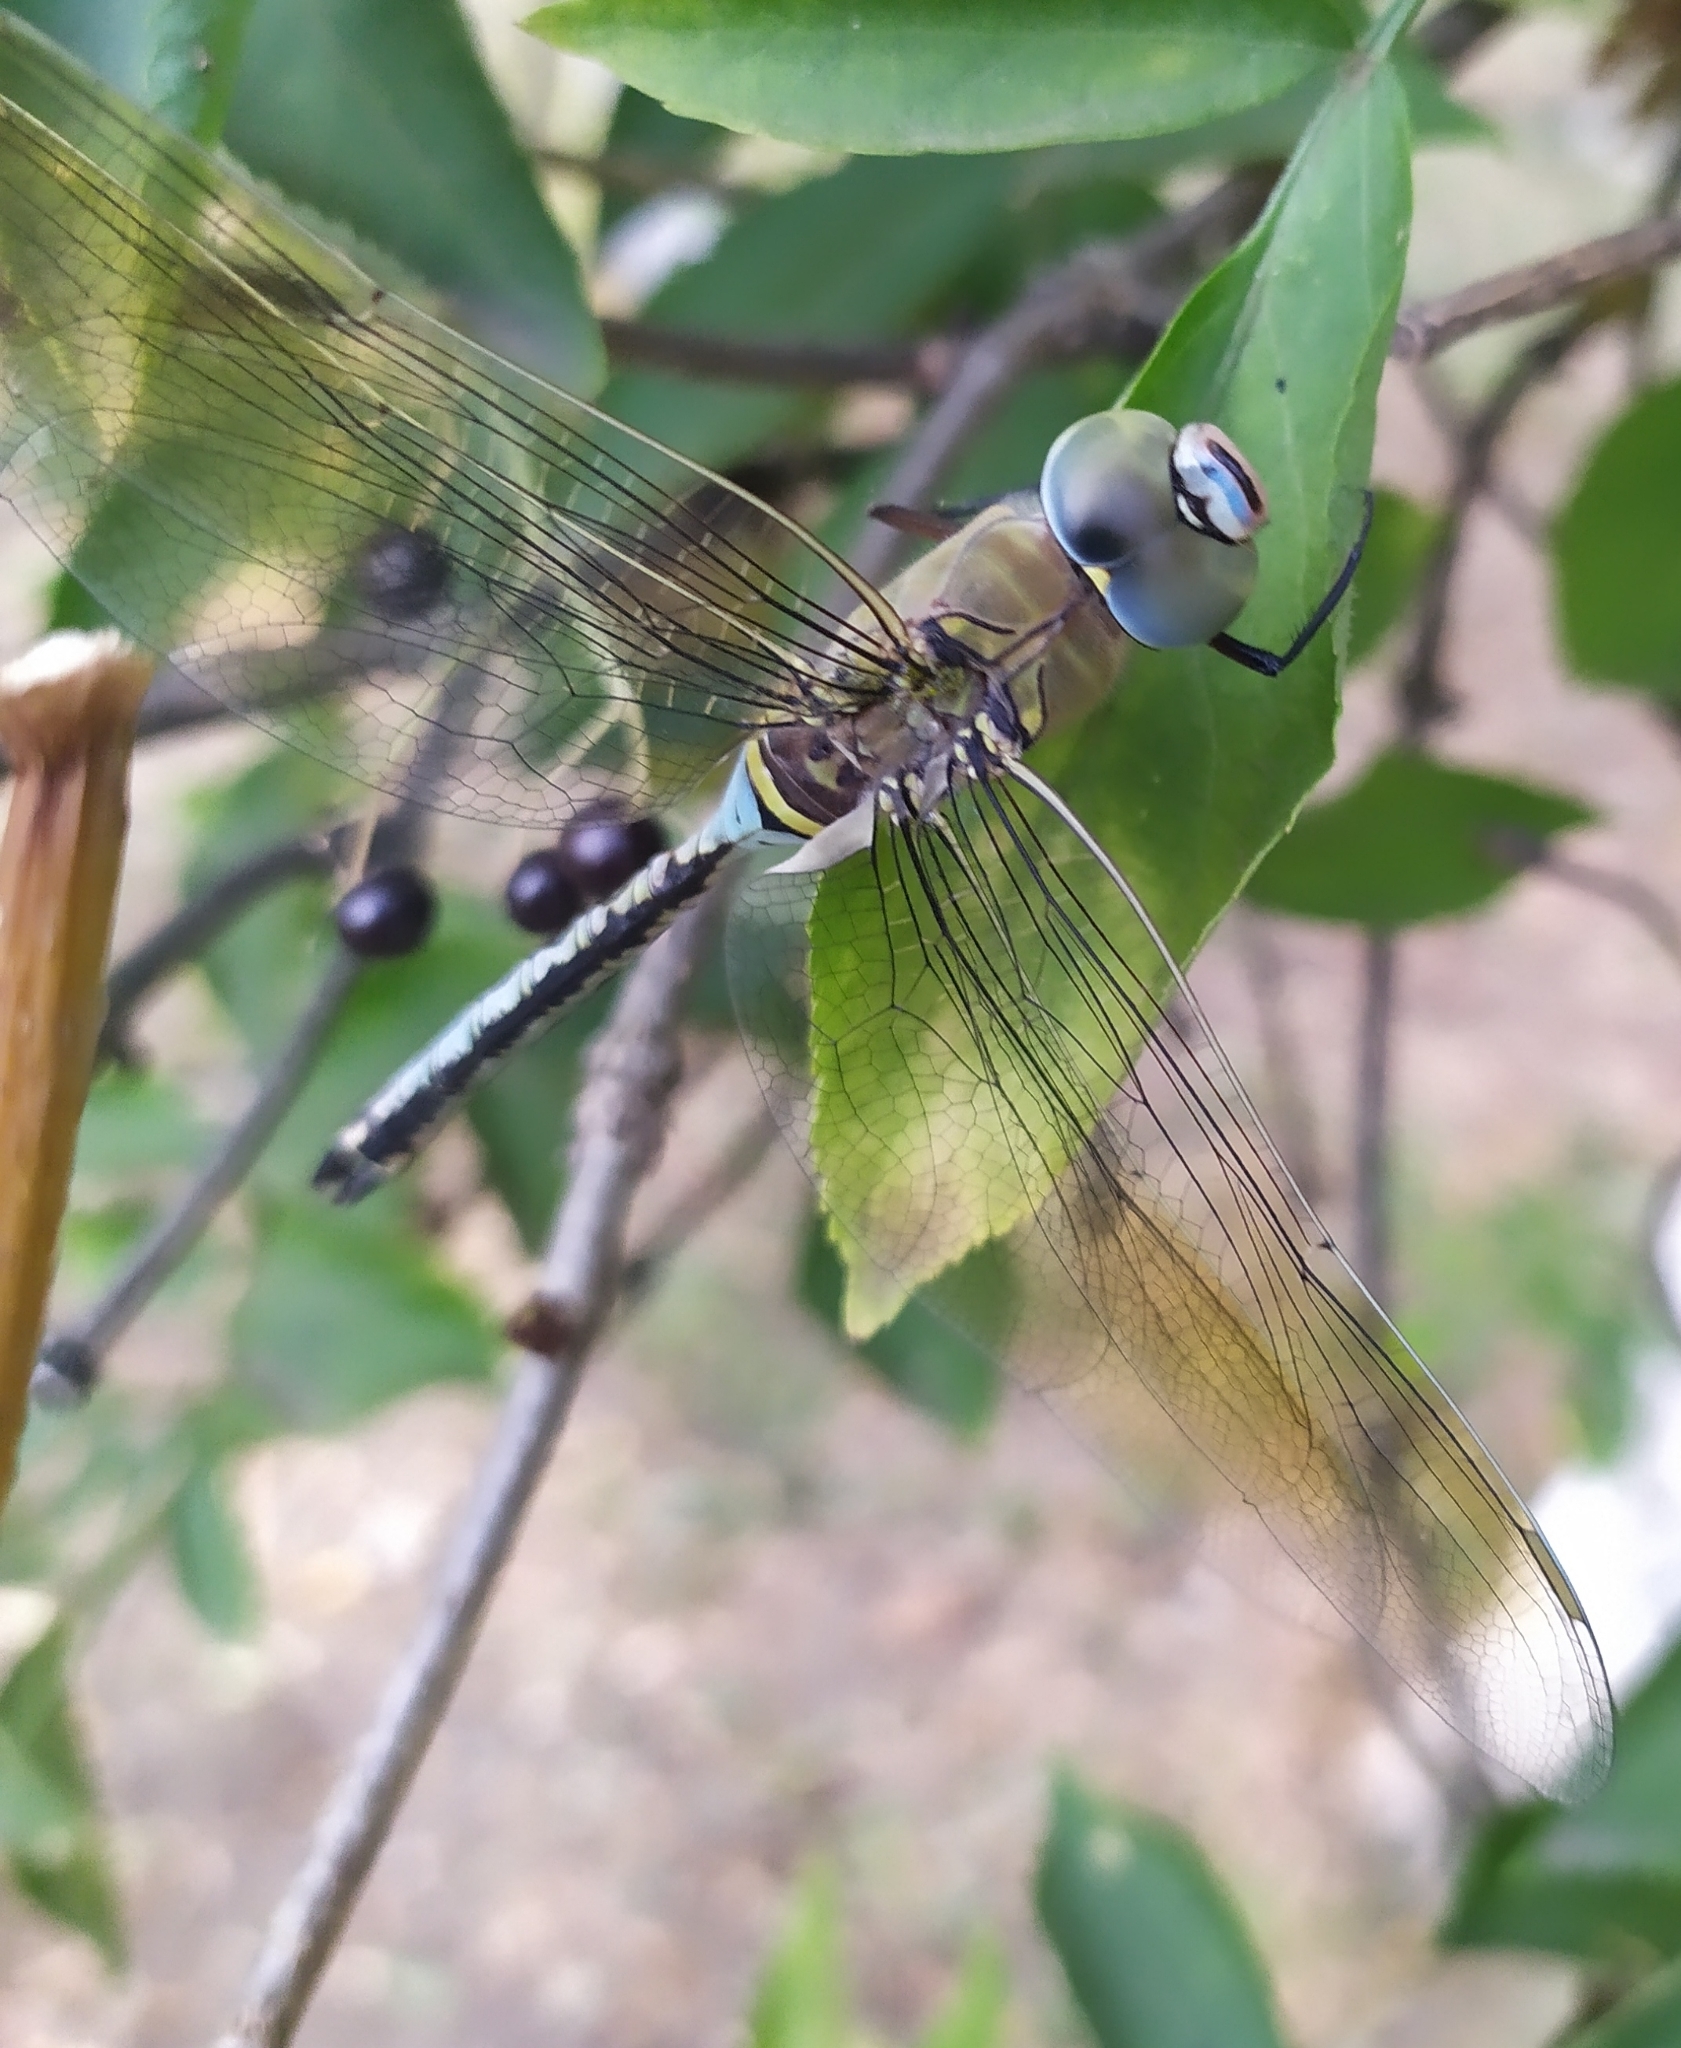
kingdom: Animalia
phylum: Arthropoda
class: Insecta
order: Odonata
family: Aeshnidae
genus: Anax
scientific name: Anax parthenope
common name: Lesser emperor
